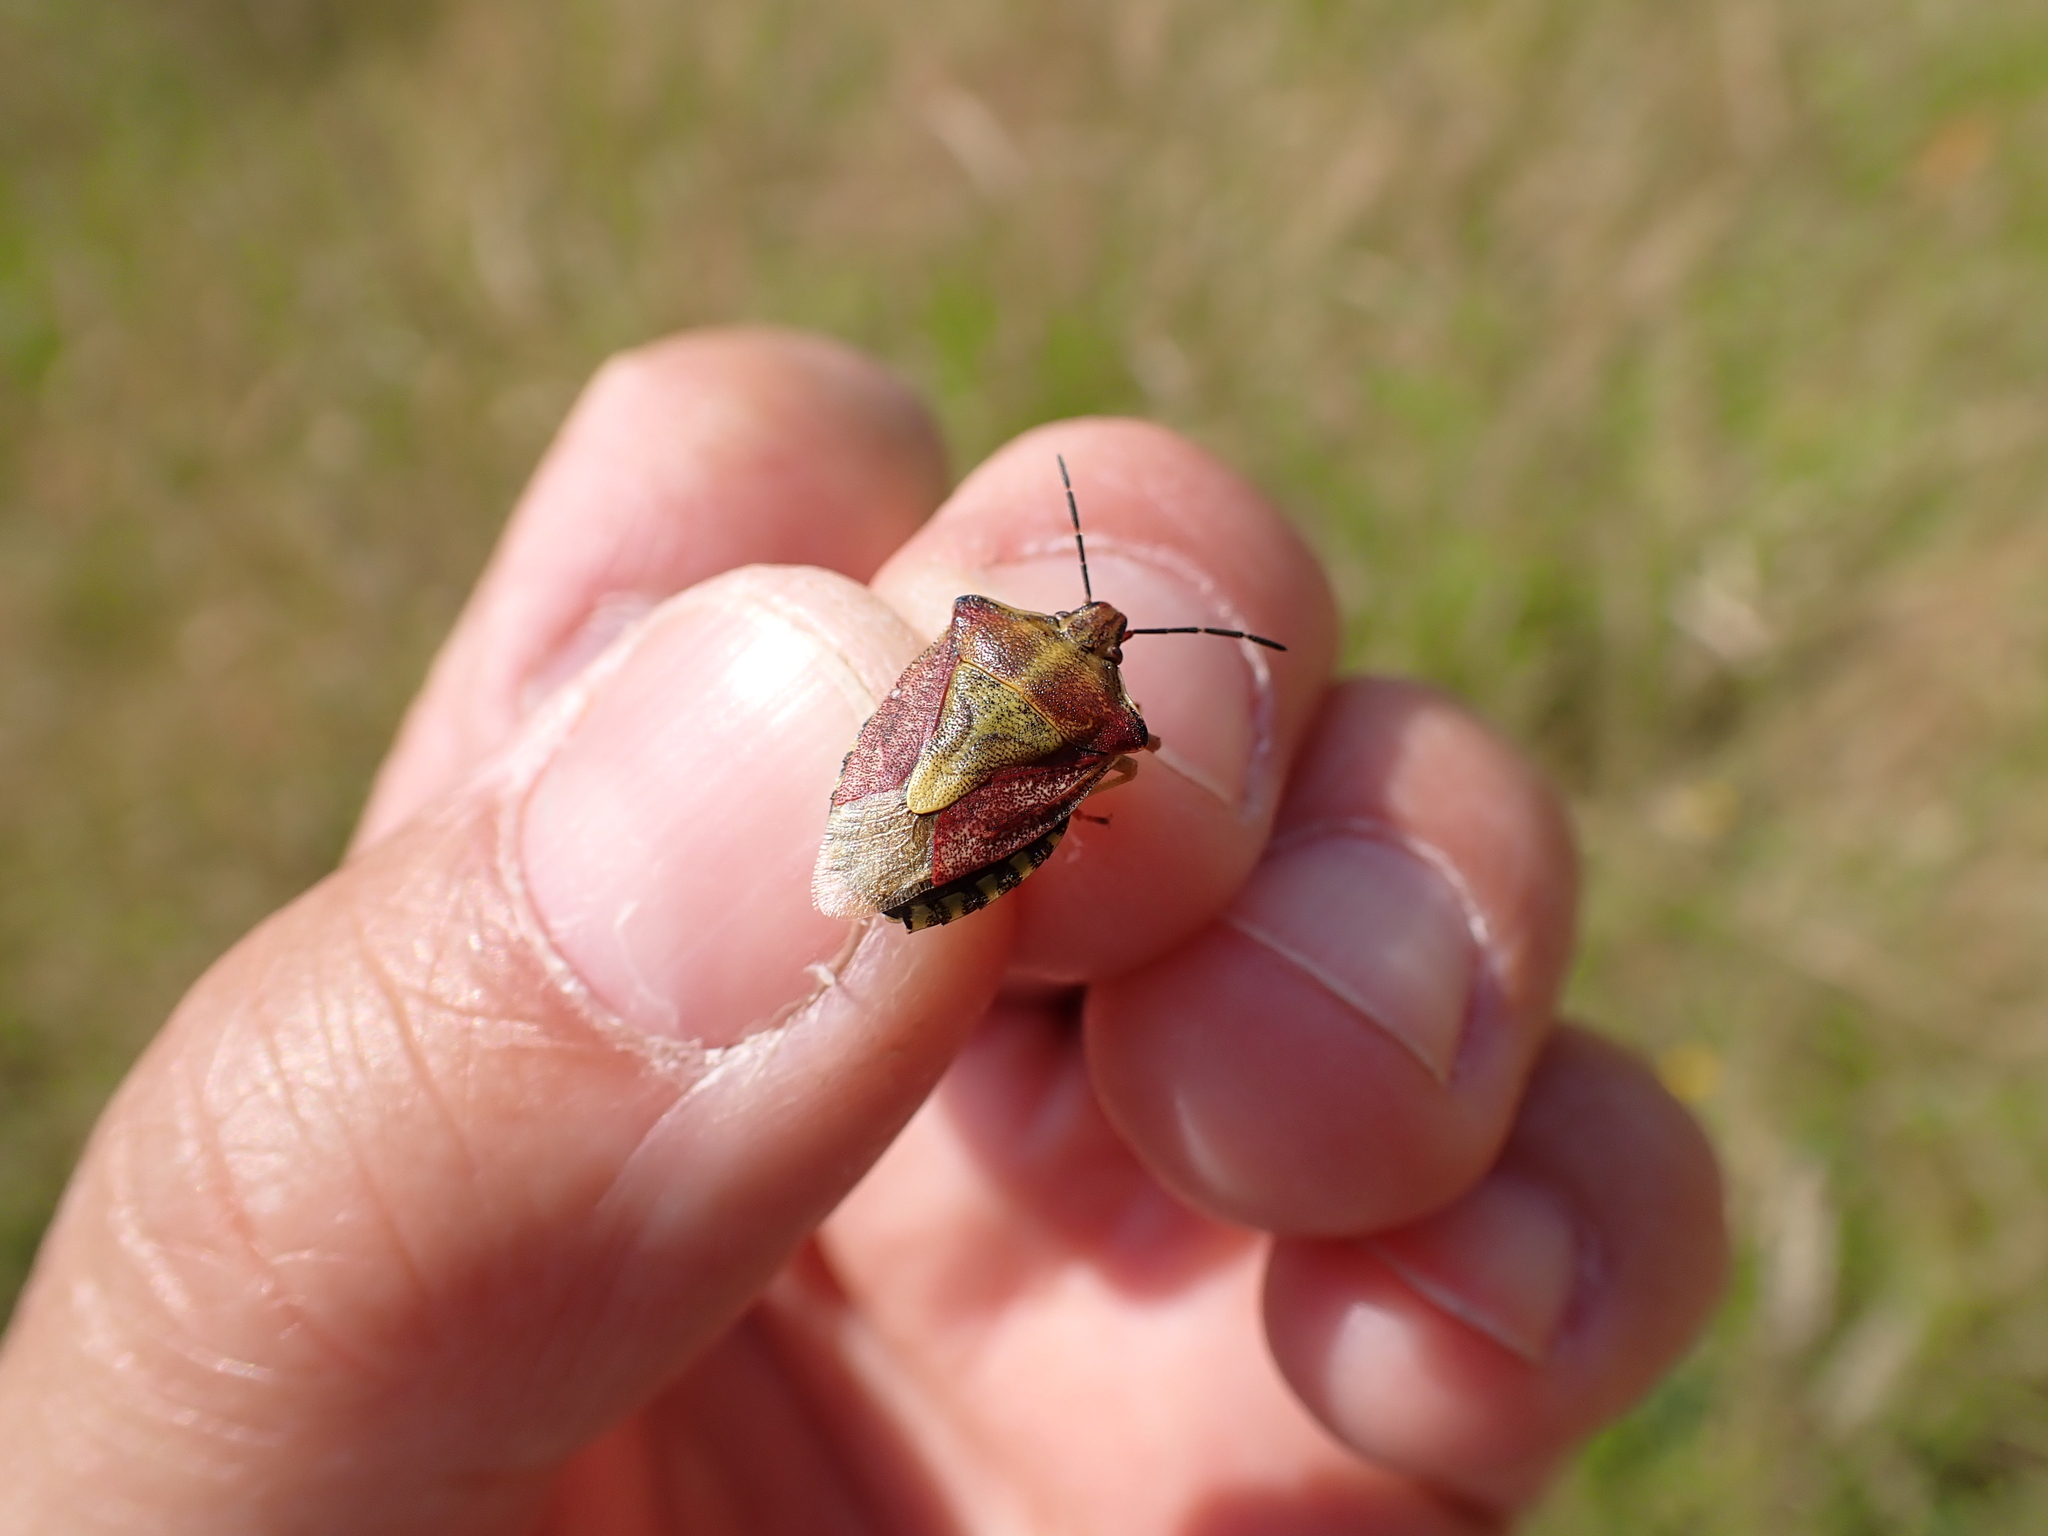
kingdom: Animalia
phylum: Arthropoda
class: Insecta
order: Hemiptera
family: Pentatomidae
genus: Carpocoris
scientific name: Carpocoris purpureipennis
